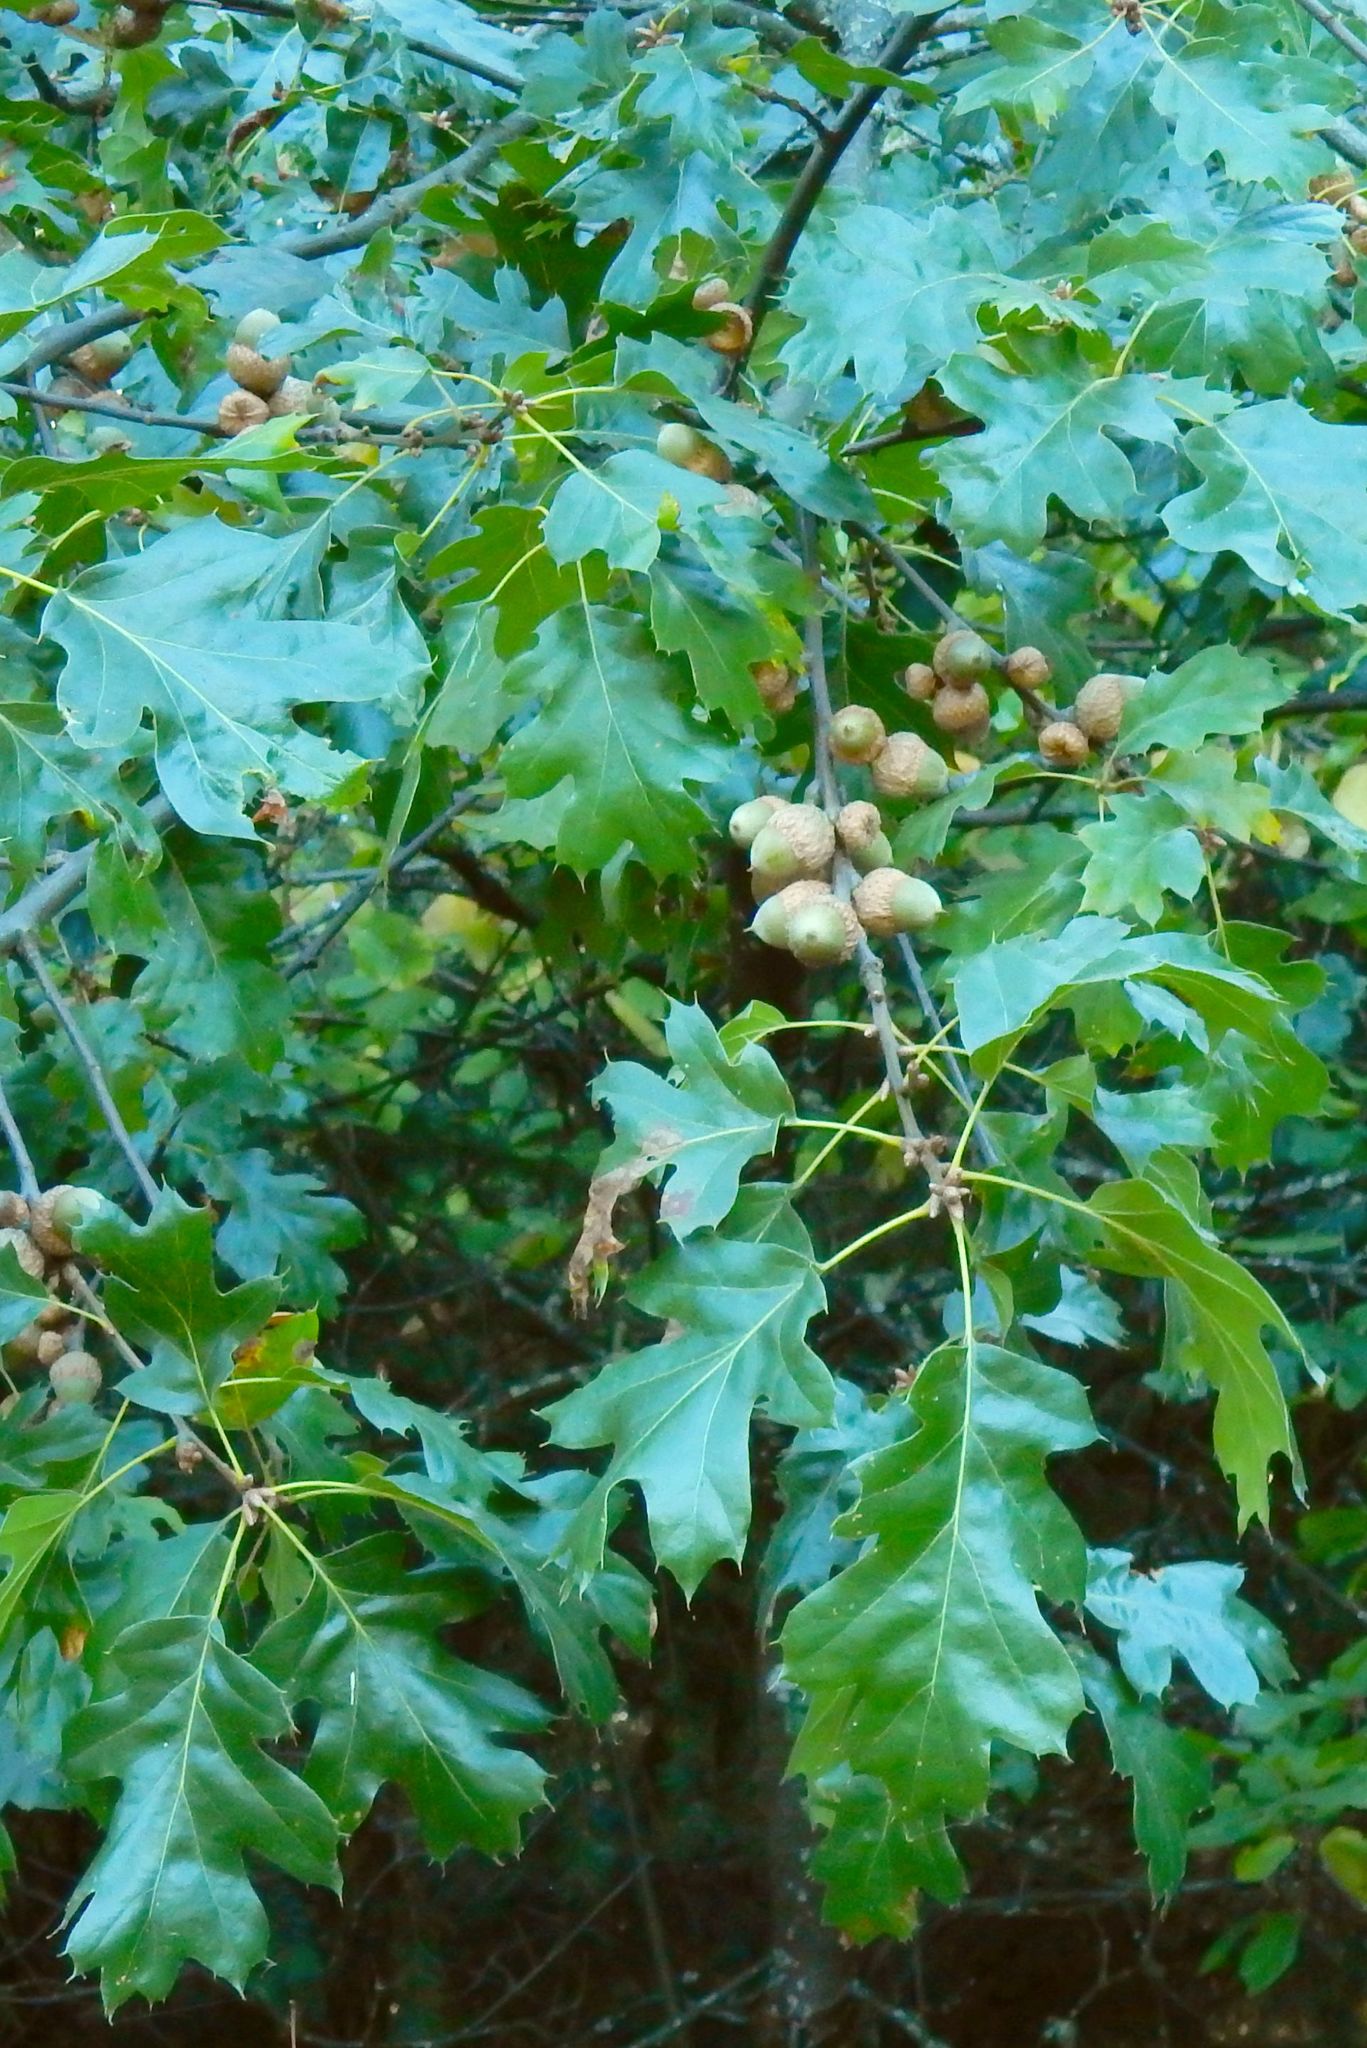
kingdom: Plantae
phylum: Tracheophyta
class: Magnoliopsida
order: Fagales
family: Fagaceae
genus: Quercus
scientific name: Quercus kelloggii
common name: California black oak
